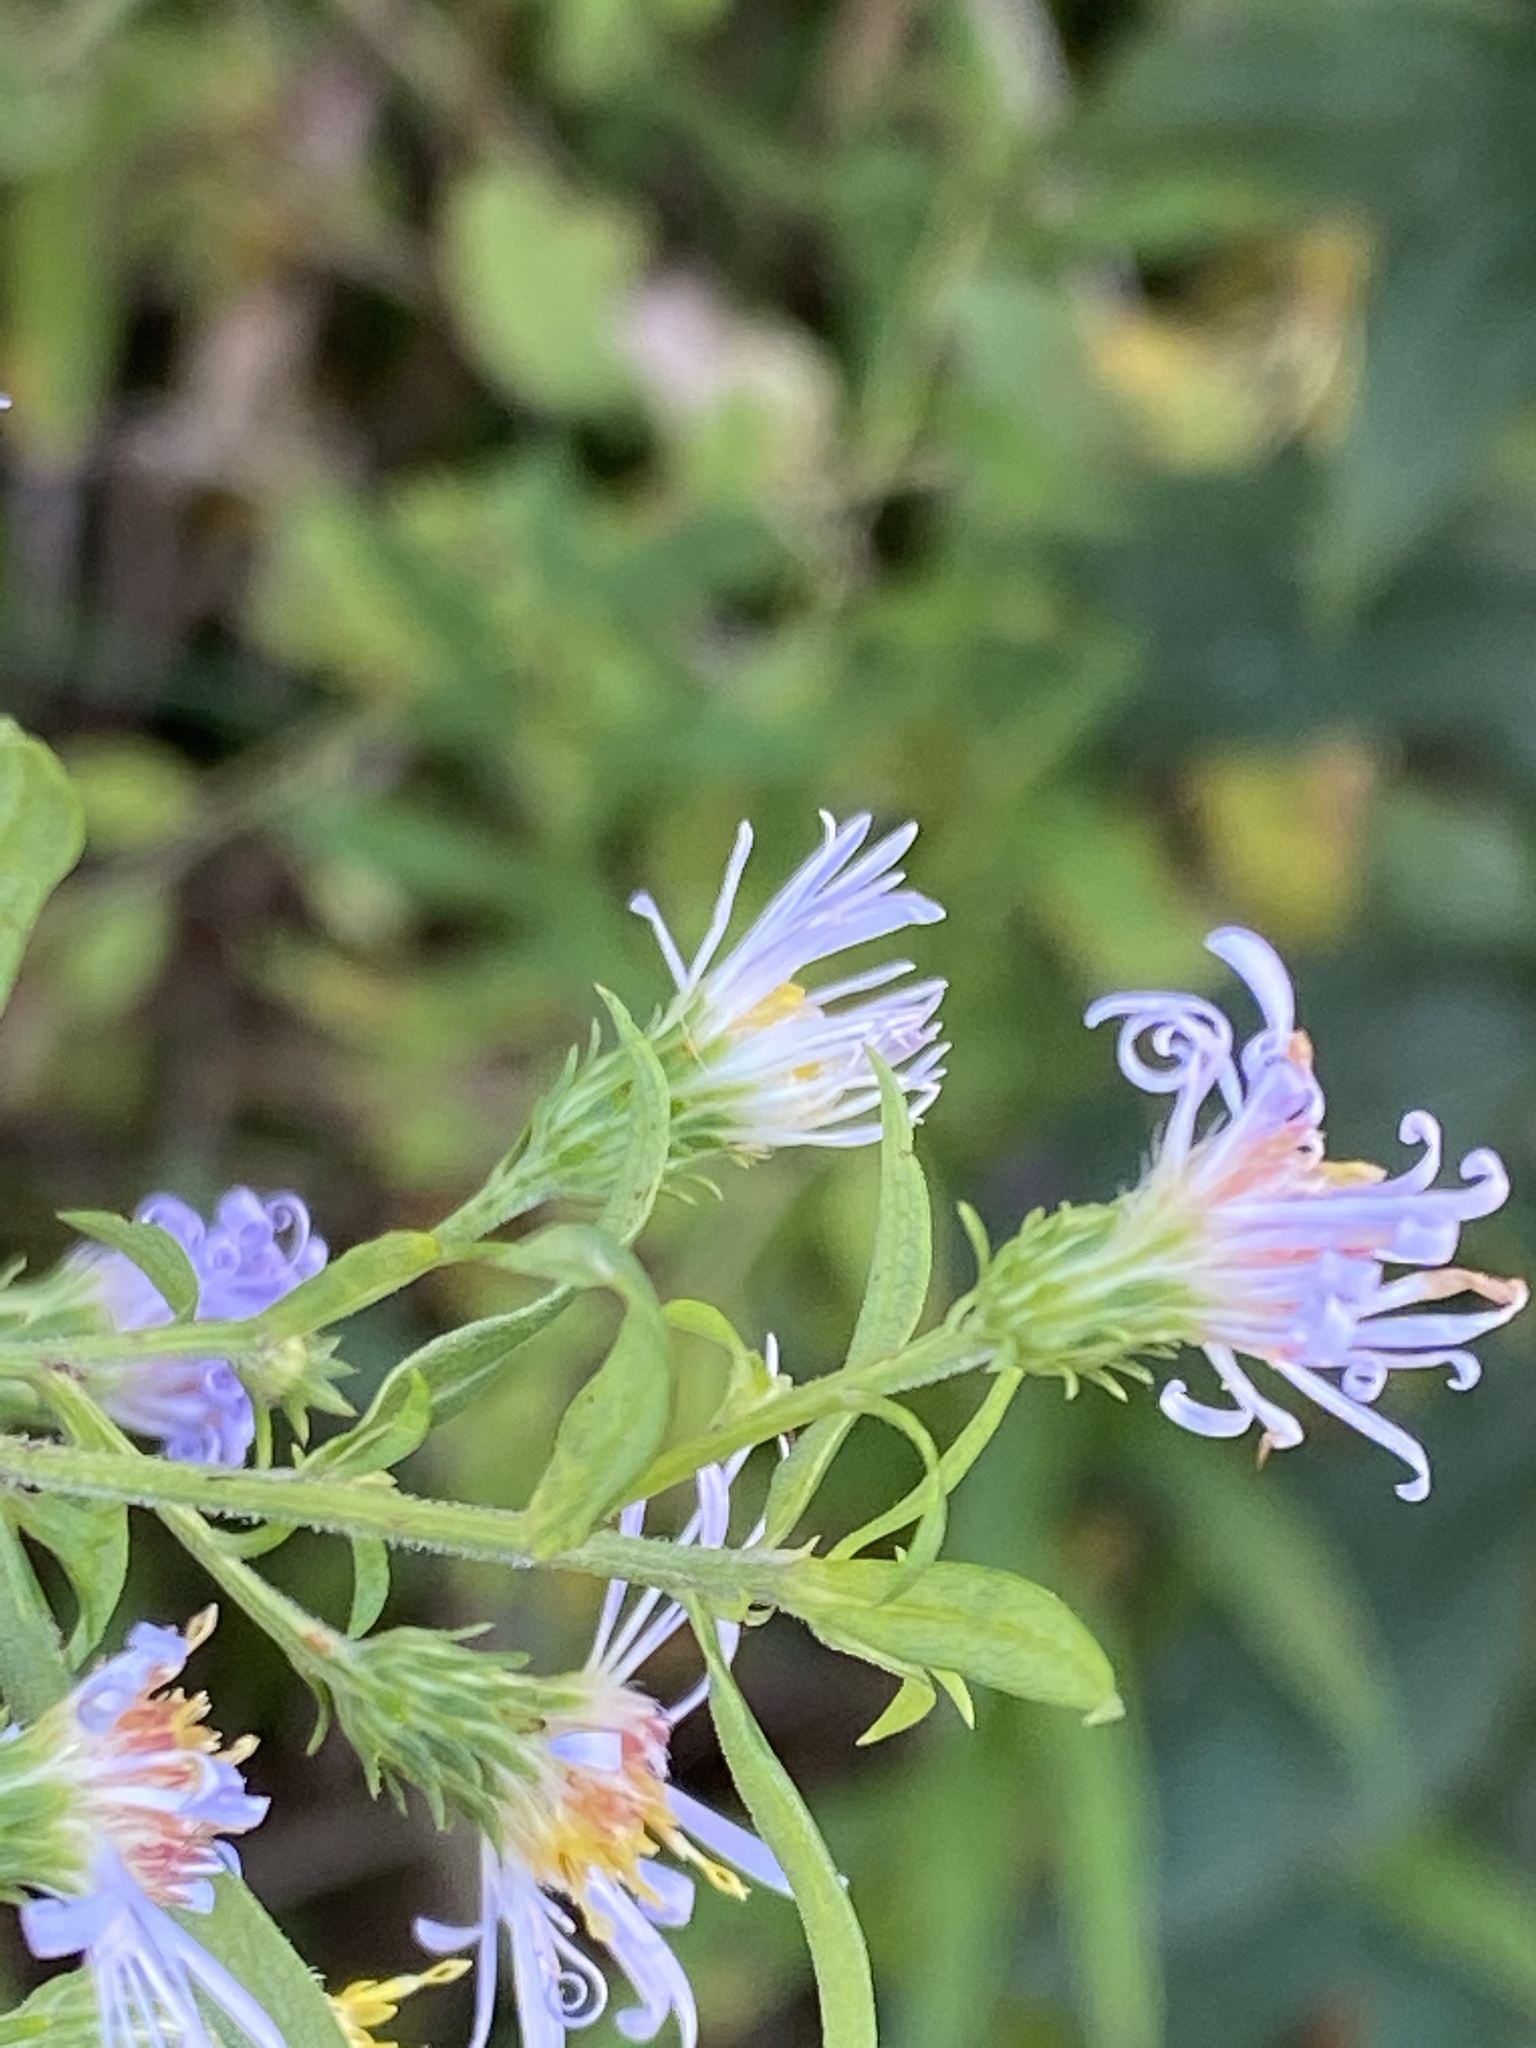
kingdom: Plantae
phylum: Tracheophyta
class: Magnoliopsida
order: Asterales
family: Asteraceae
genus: Symphyotrichum
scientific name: Symphyotrichum puniceum
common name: Bog aster
